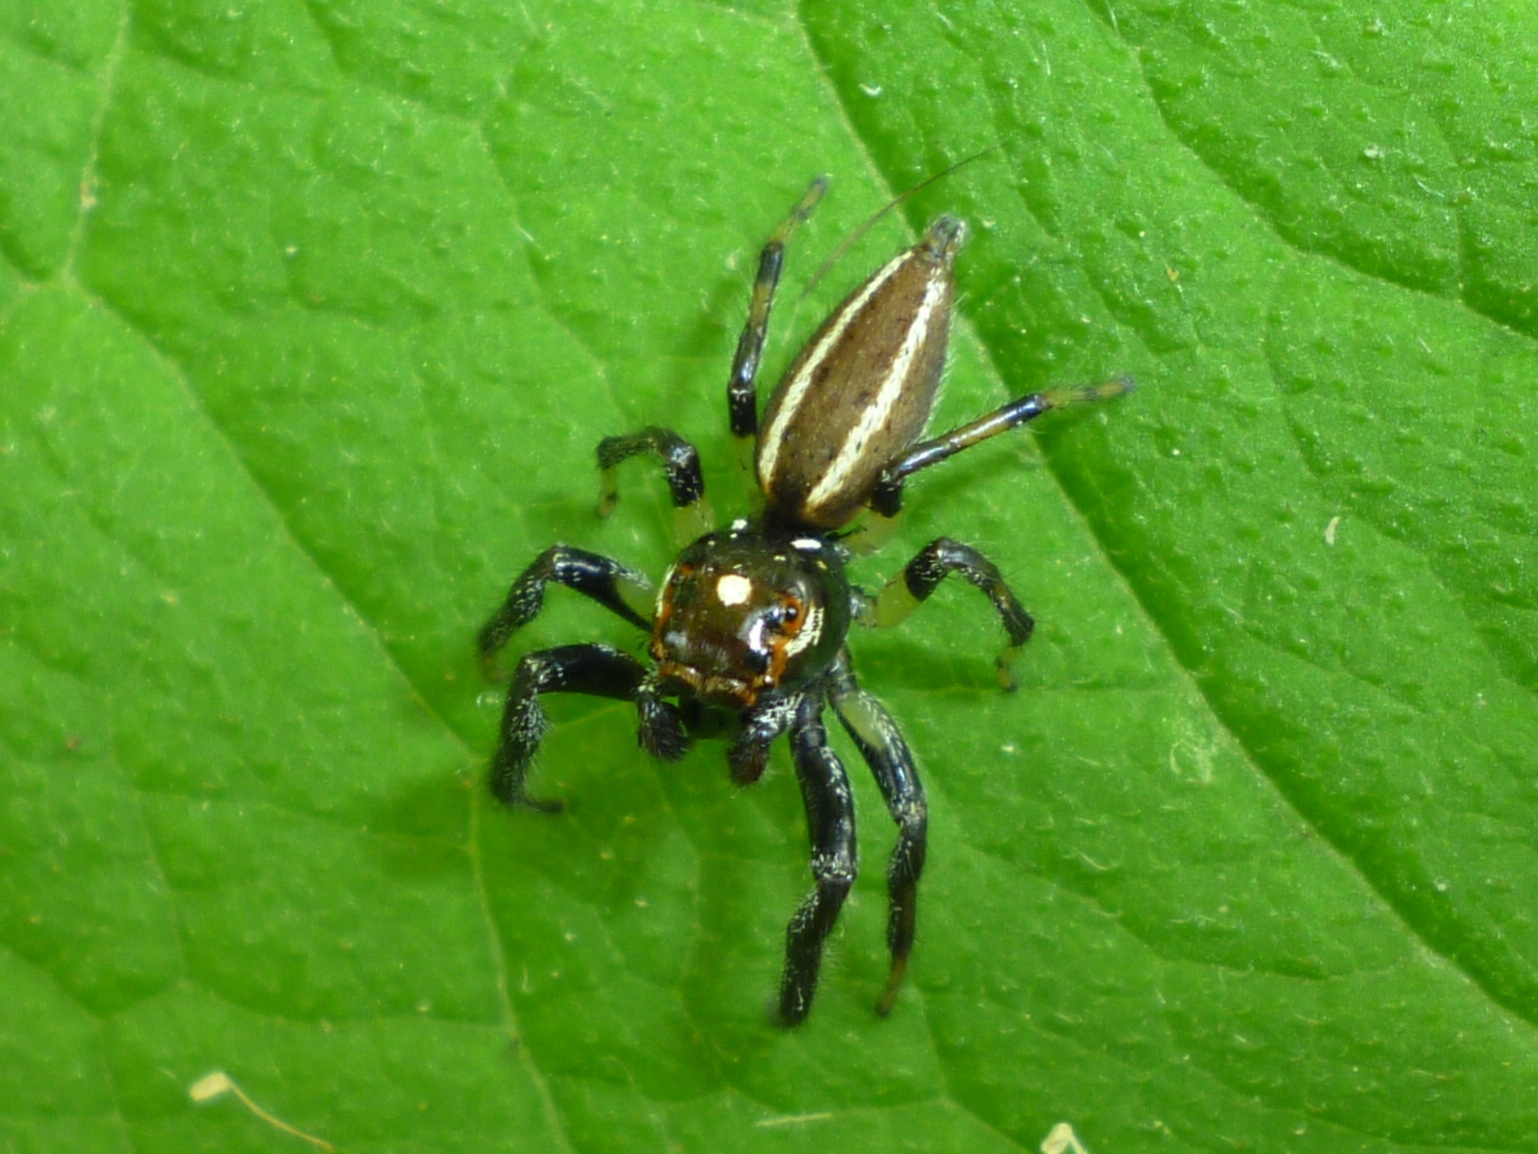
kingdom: Animalia
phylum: Arthropoda
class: Arachnida
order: Araneae
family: Salticidae
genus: Colonus
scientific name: Colonus sylvanus
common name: Jumping spiders
